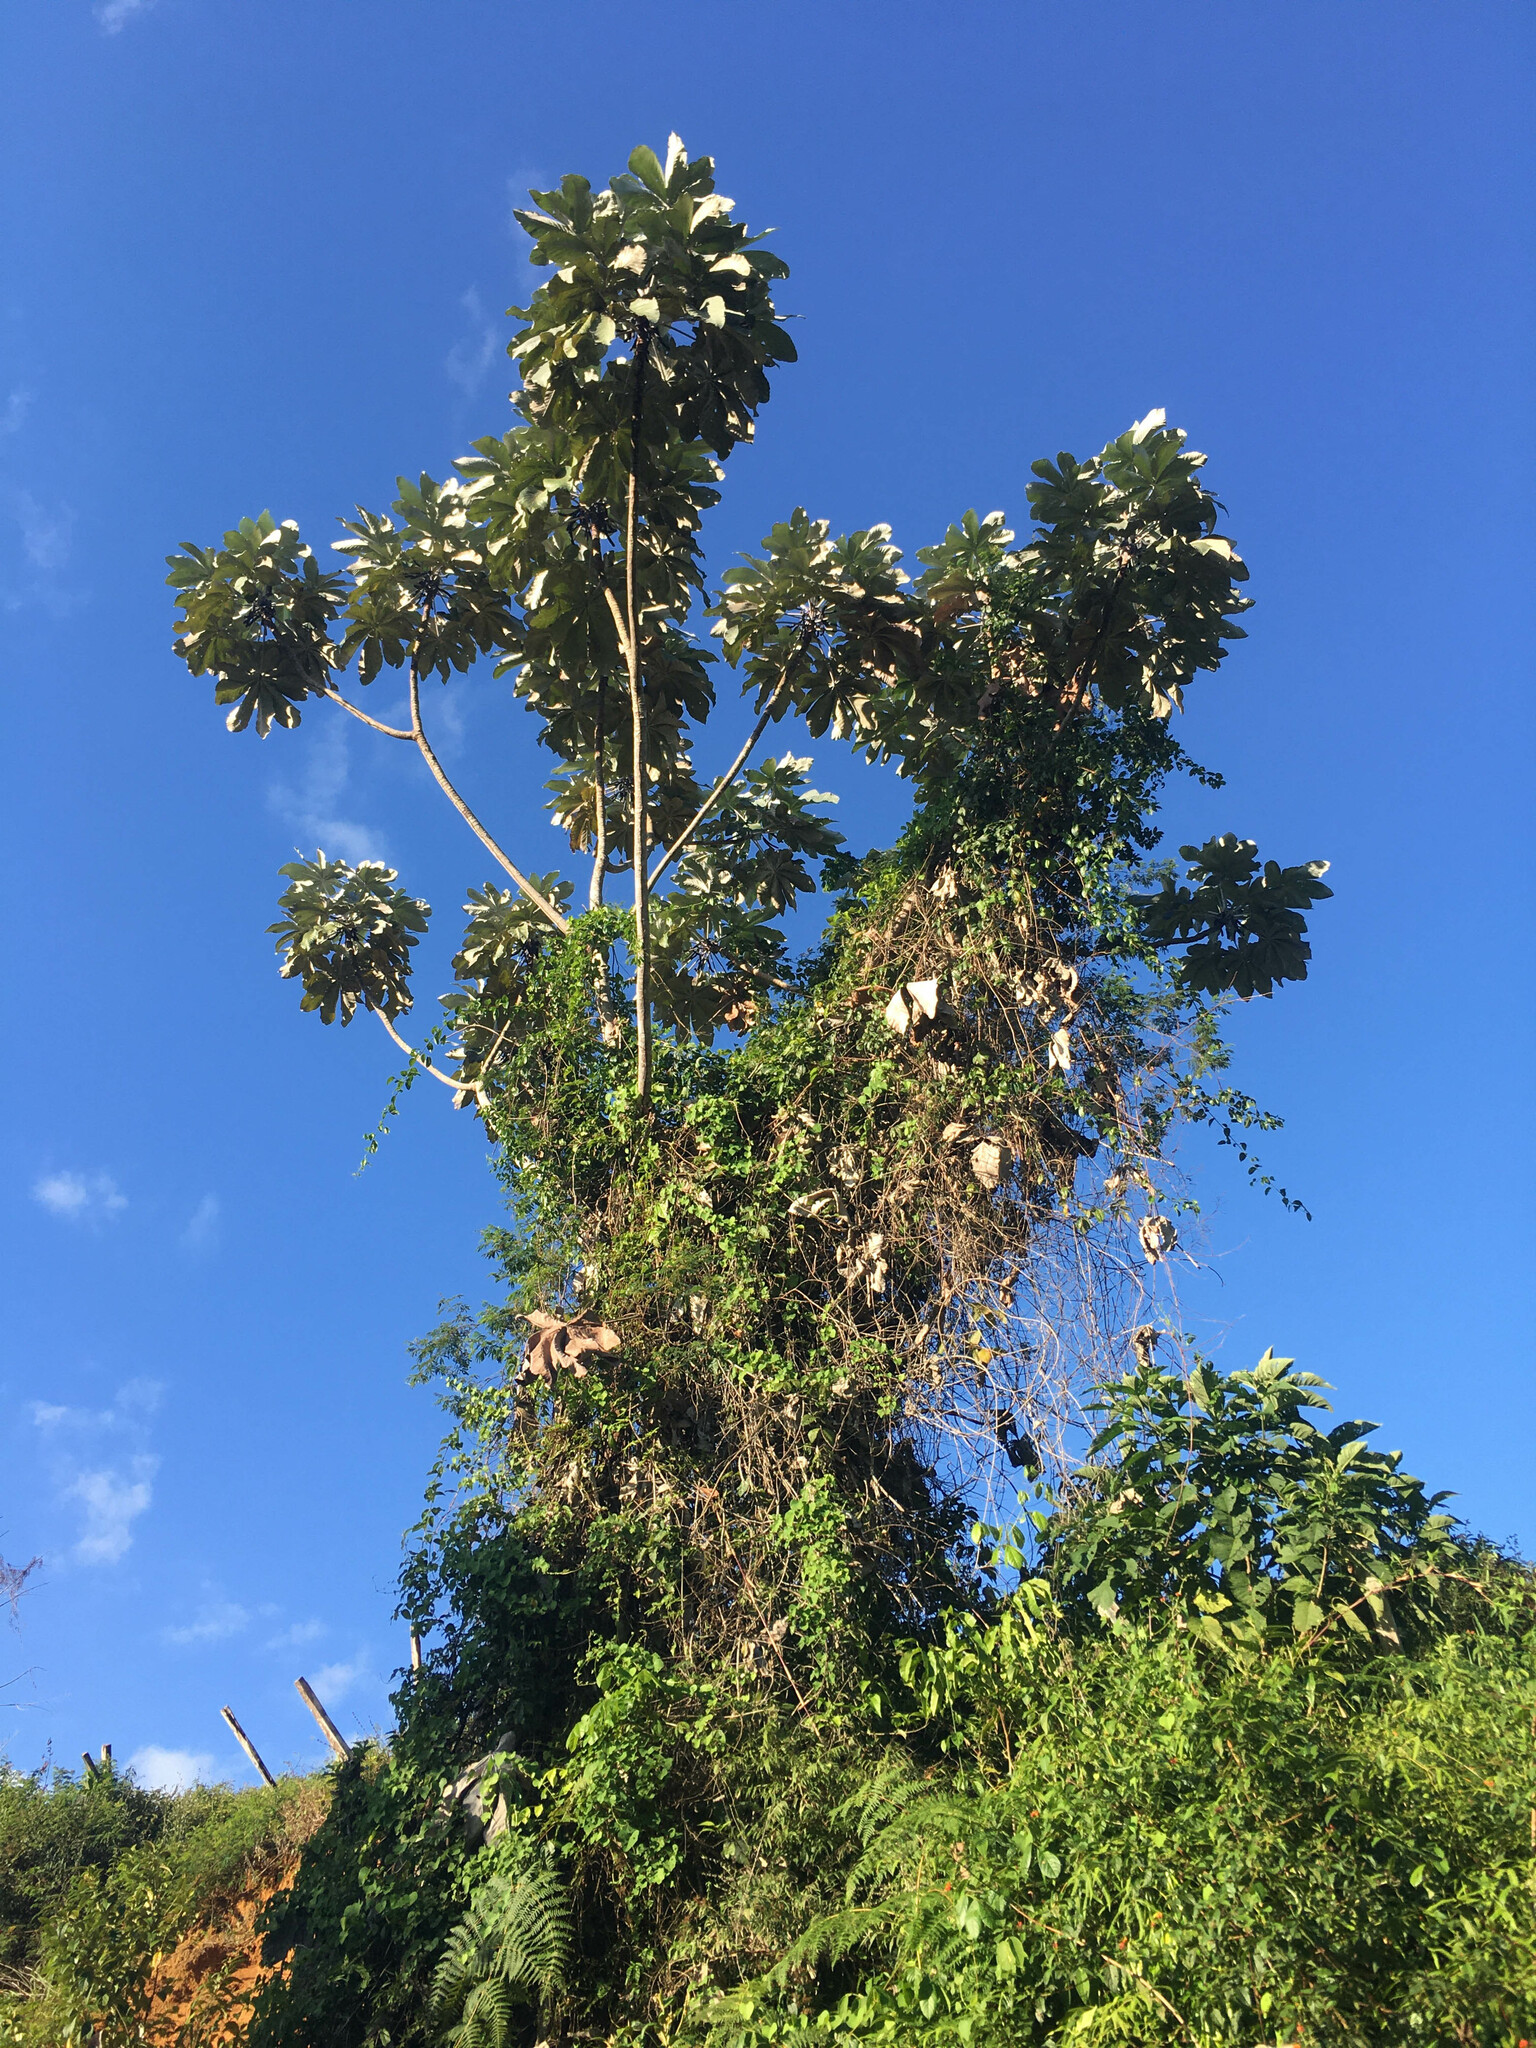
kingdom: Plantae
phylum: Tracheophyta
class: Magnoliopsida
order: Rosales
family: Urticaceae
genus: Cecropia
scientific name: Cecropia hololeuca
